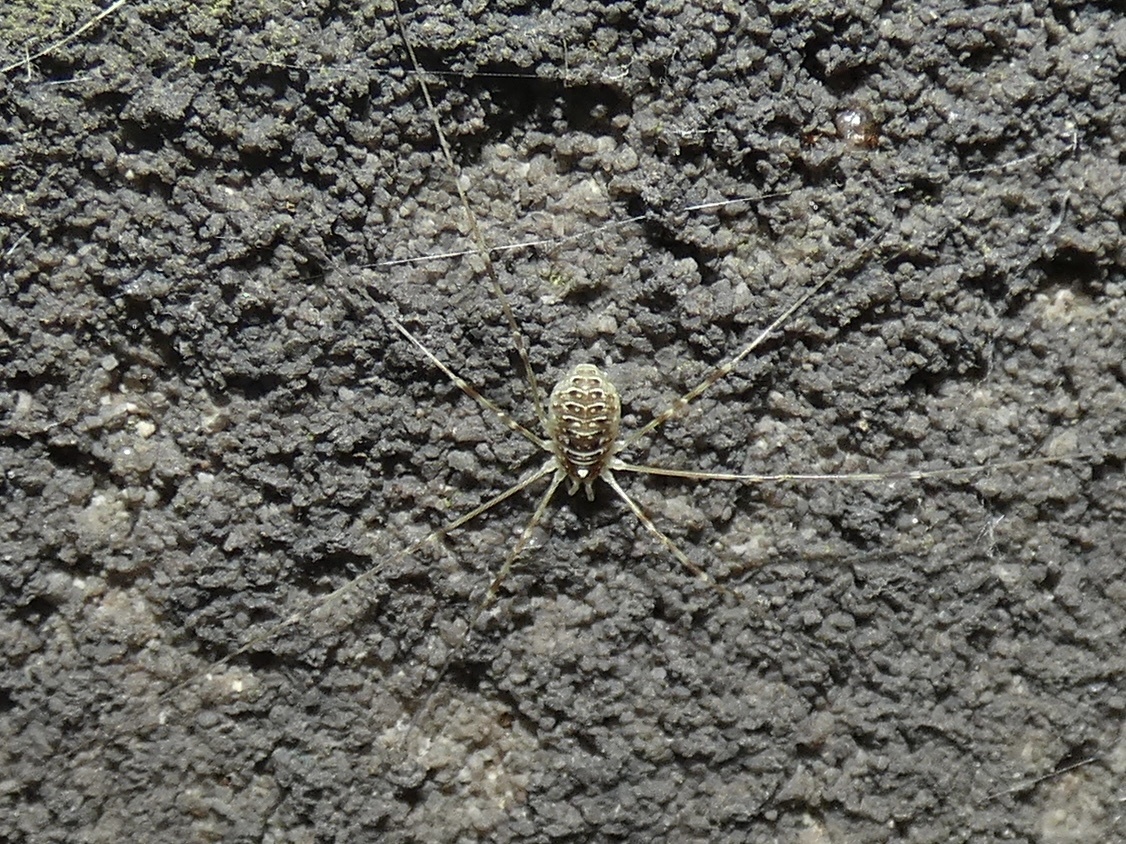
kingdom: Animalia
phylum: Arthropoda
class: Arachnida
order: Opiliones
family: Phalangiidae
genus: Opilio
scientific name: Opilio canestrinii
